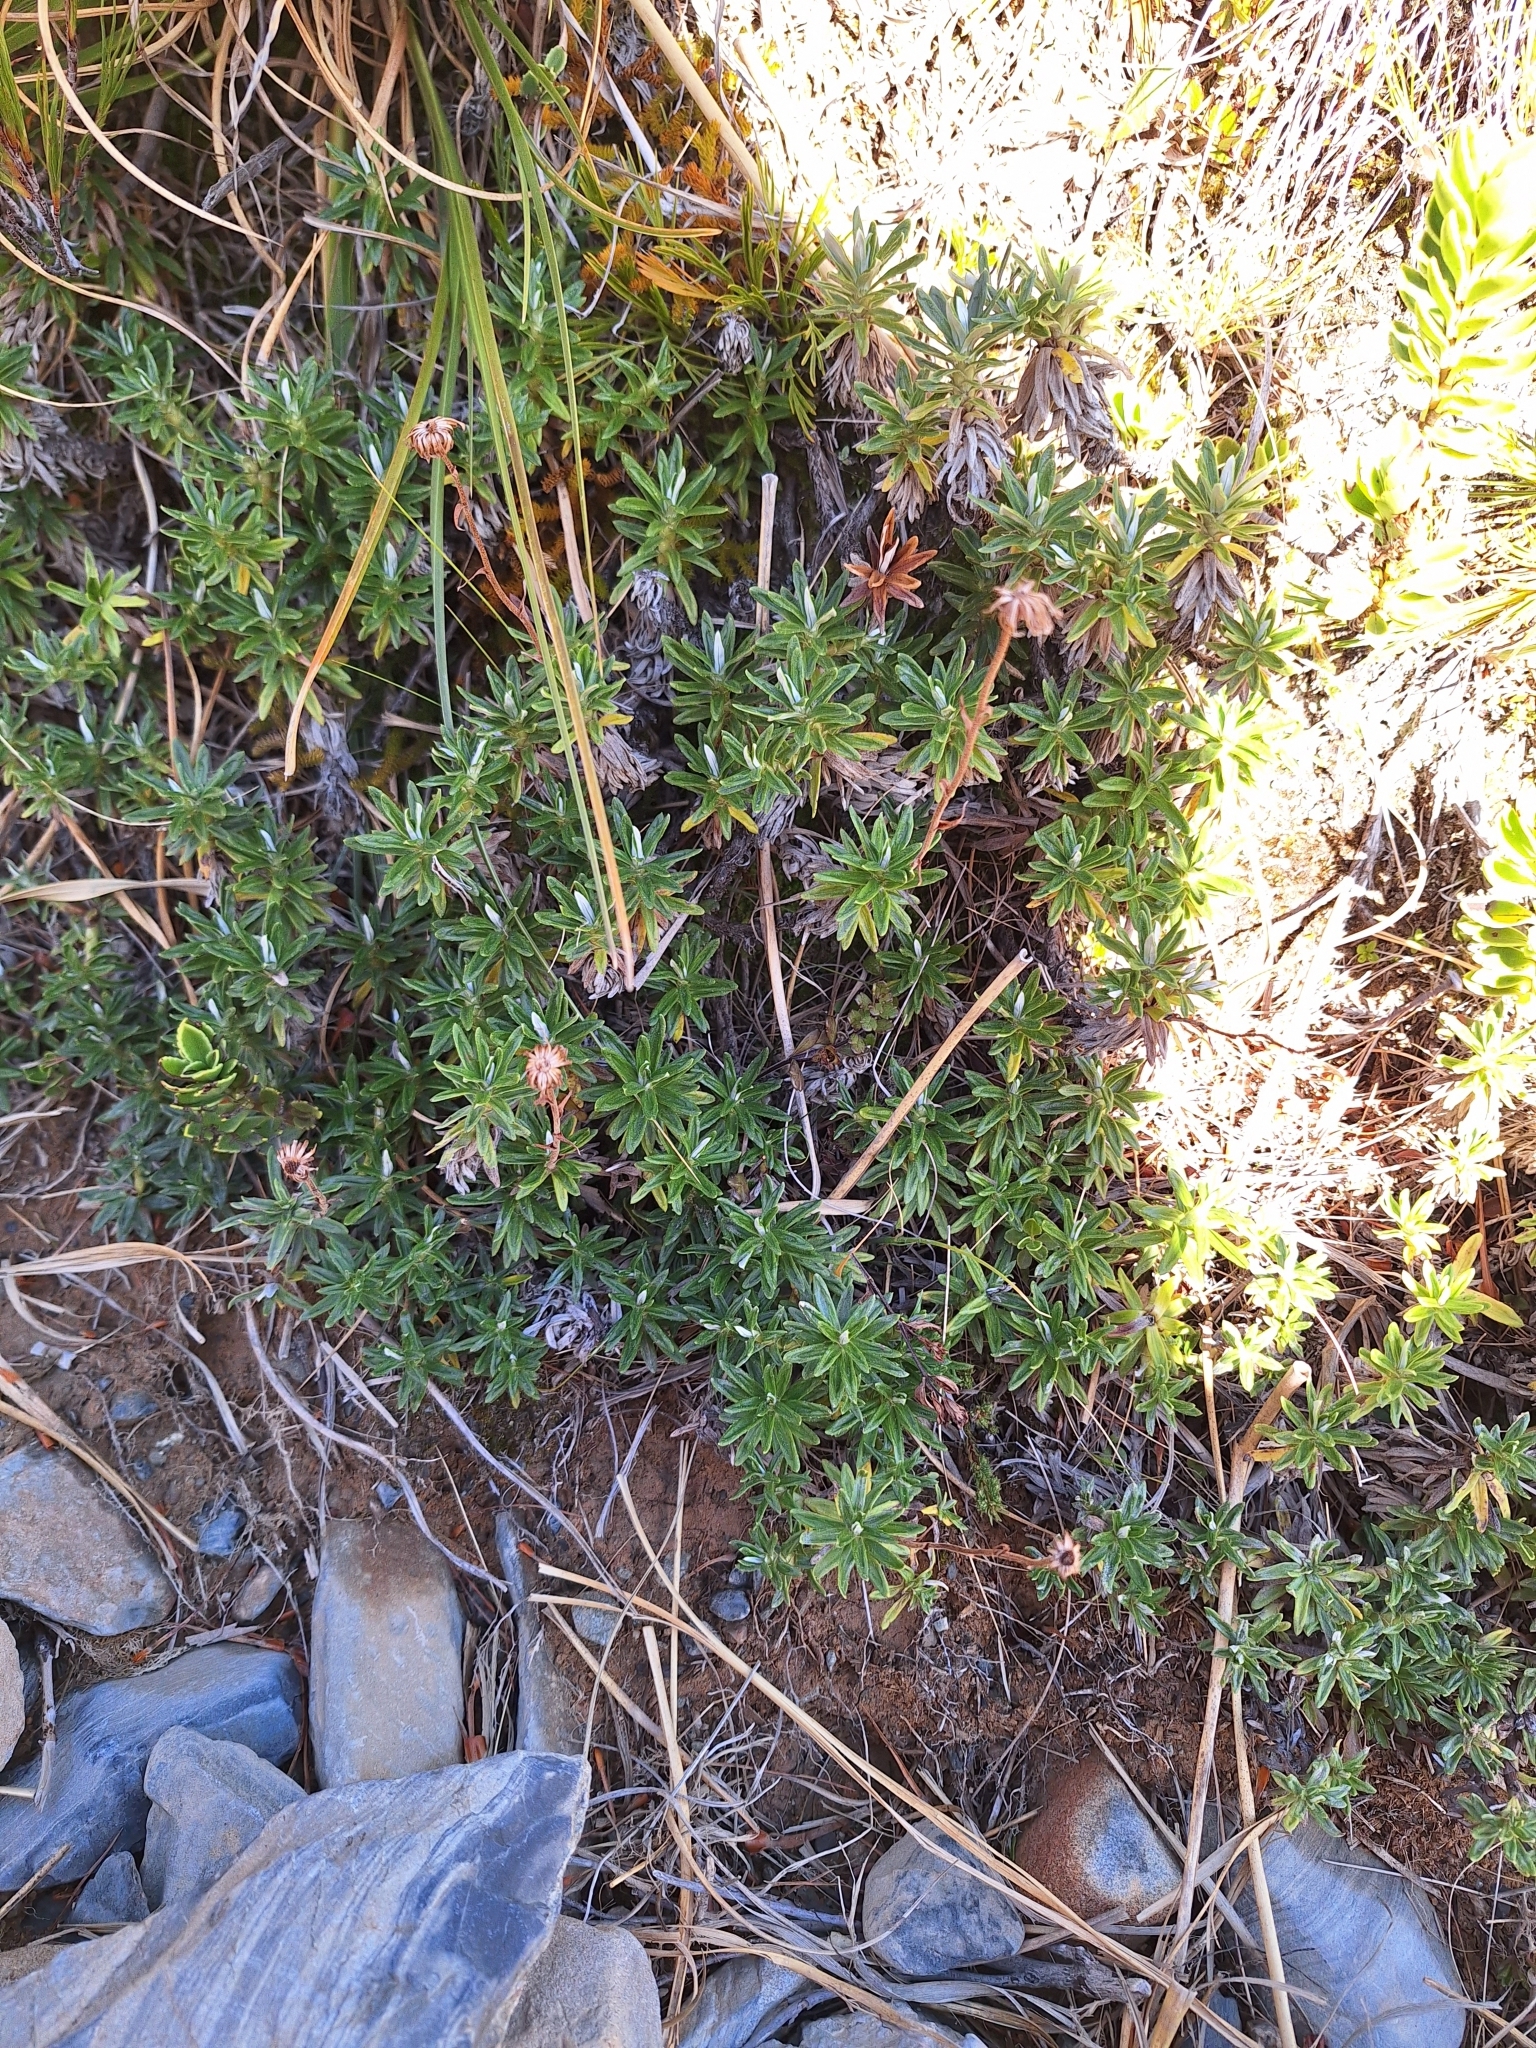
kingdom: Plantae
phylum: Tracheophyta
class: Magnoliopsida
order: Asterales
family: Asteraceae
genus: Celmisia
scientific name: Celmisia walkeri
